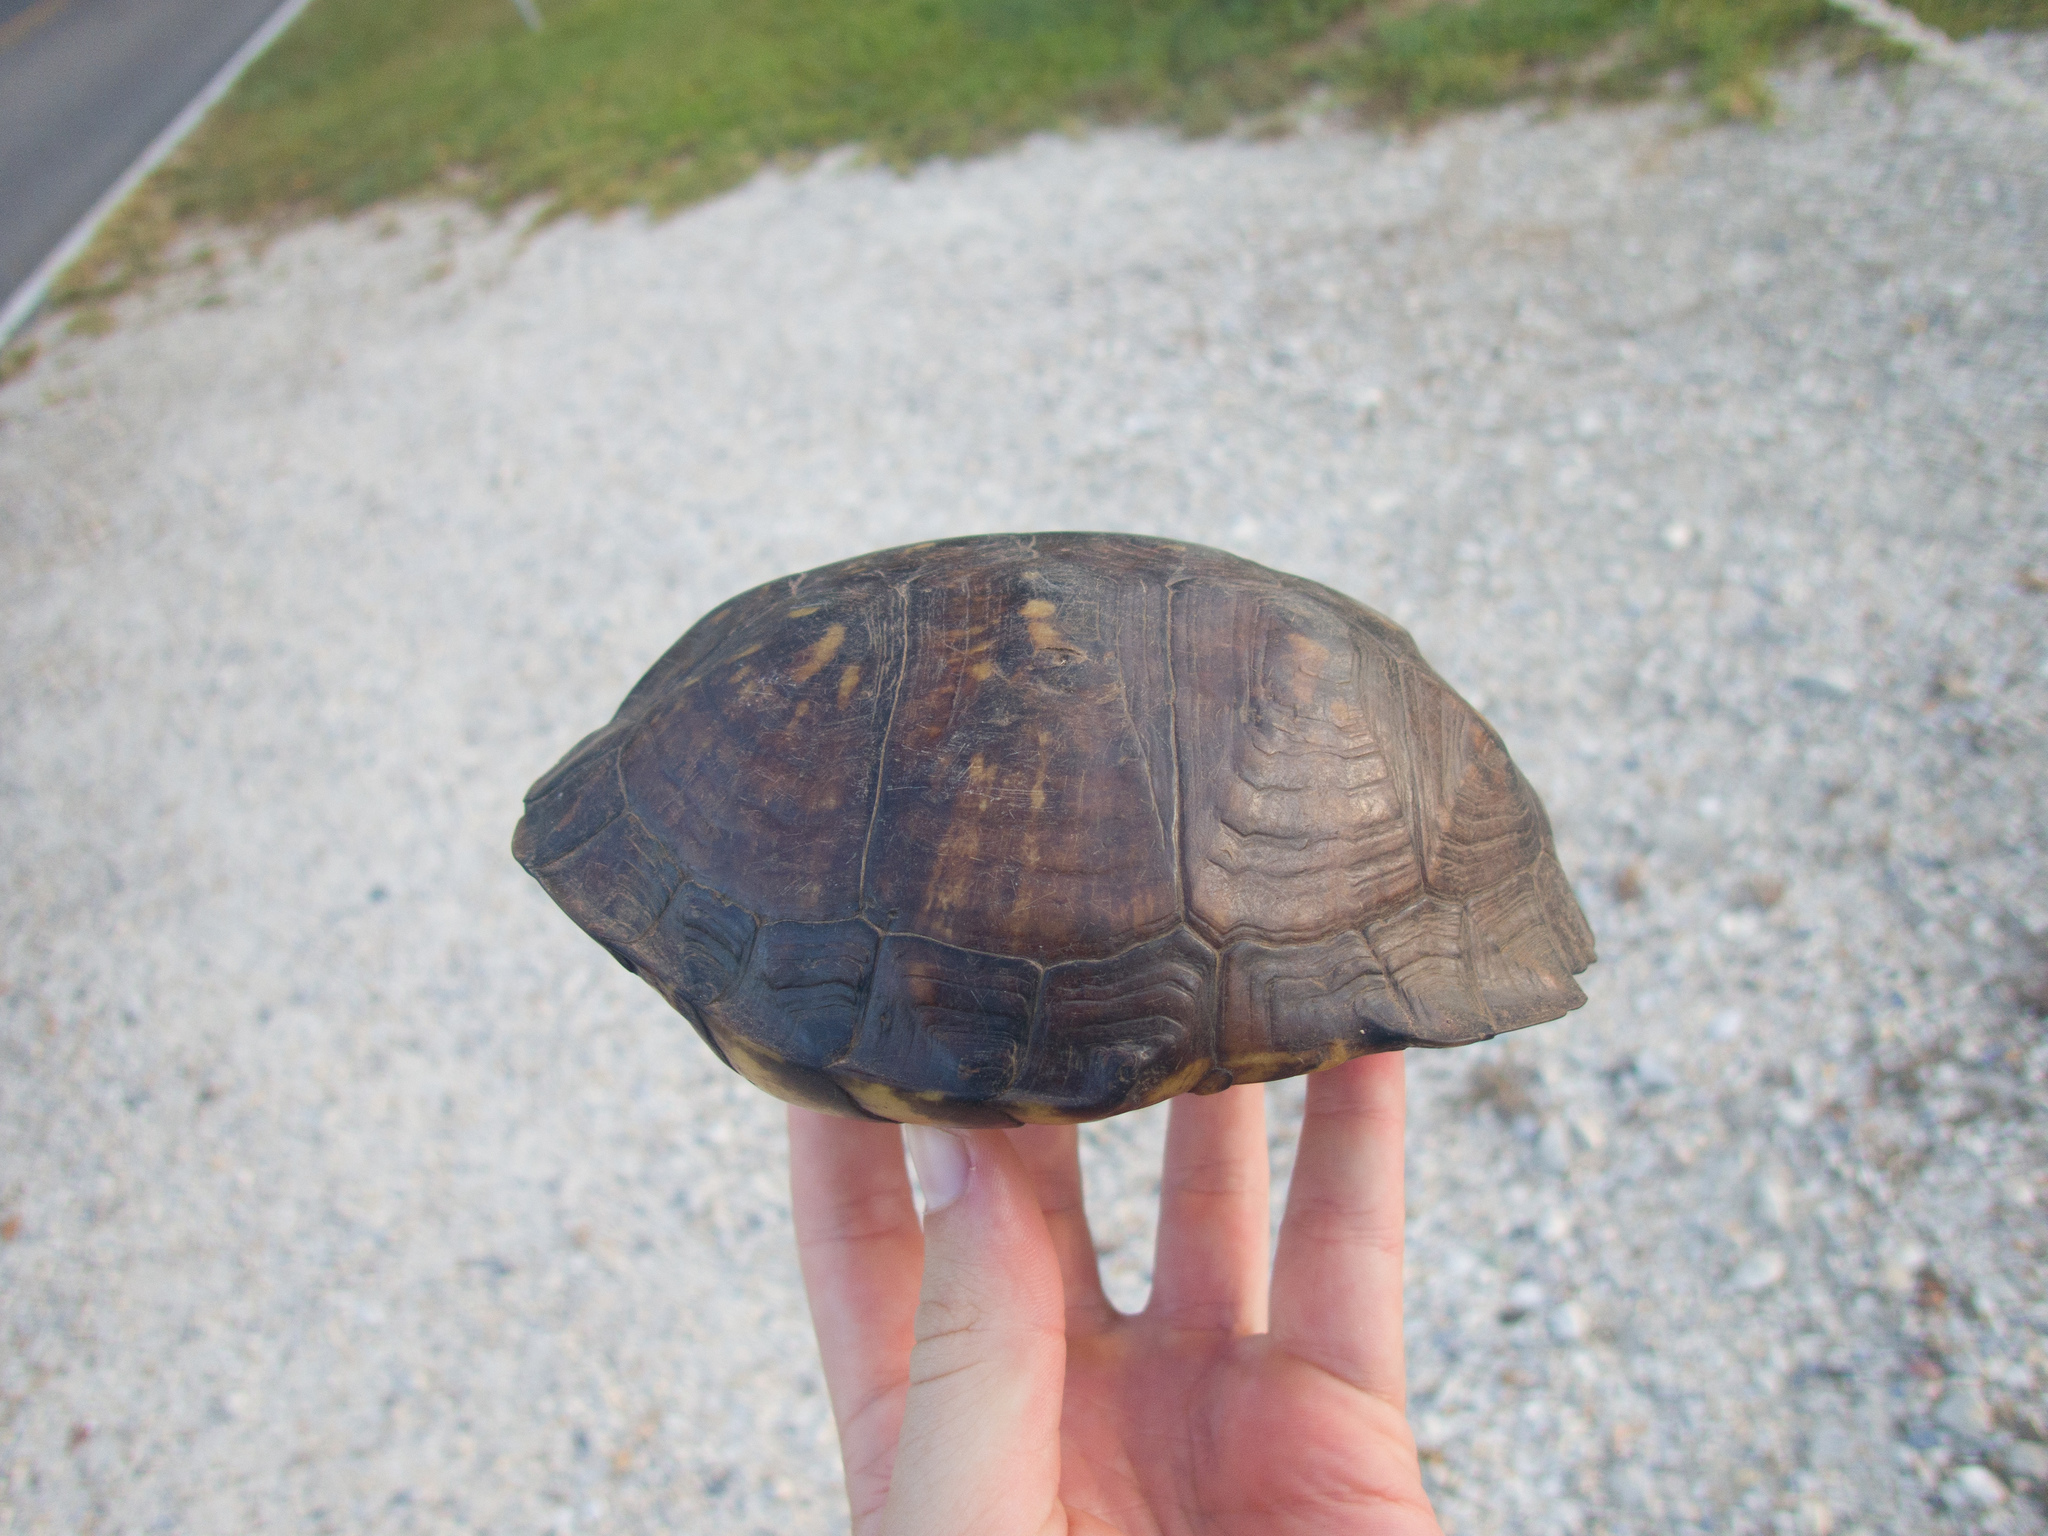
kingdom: Animalia
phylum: Chordata
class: Testudines
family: Emydidae
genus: Terrapene
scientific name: Terrapene carolina
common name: Common box turtle
